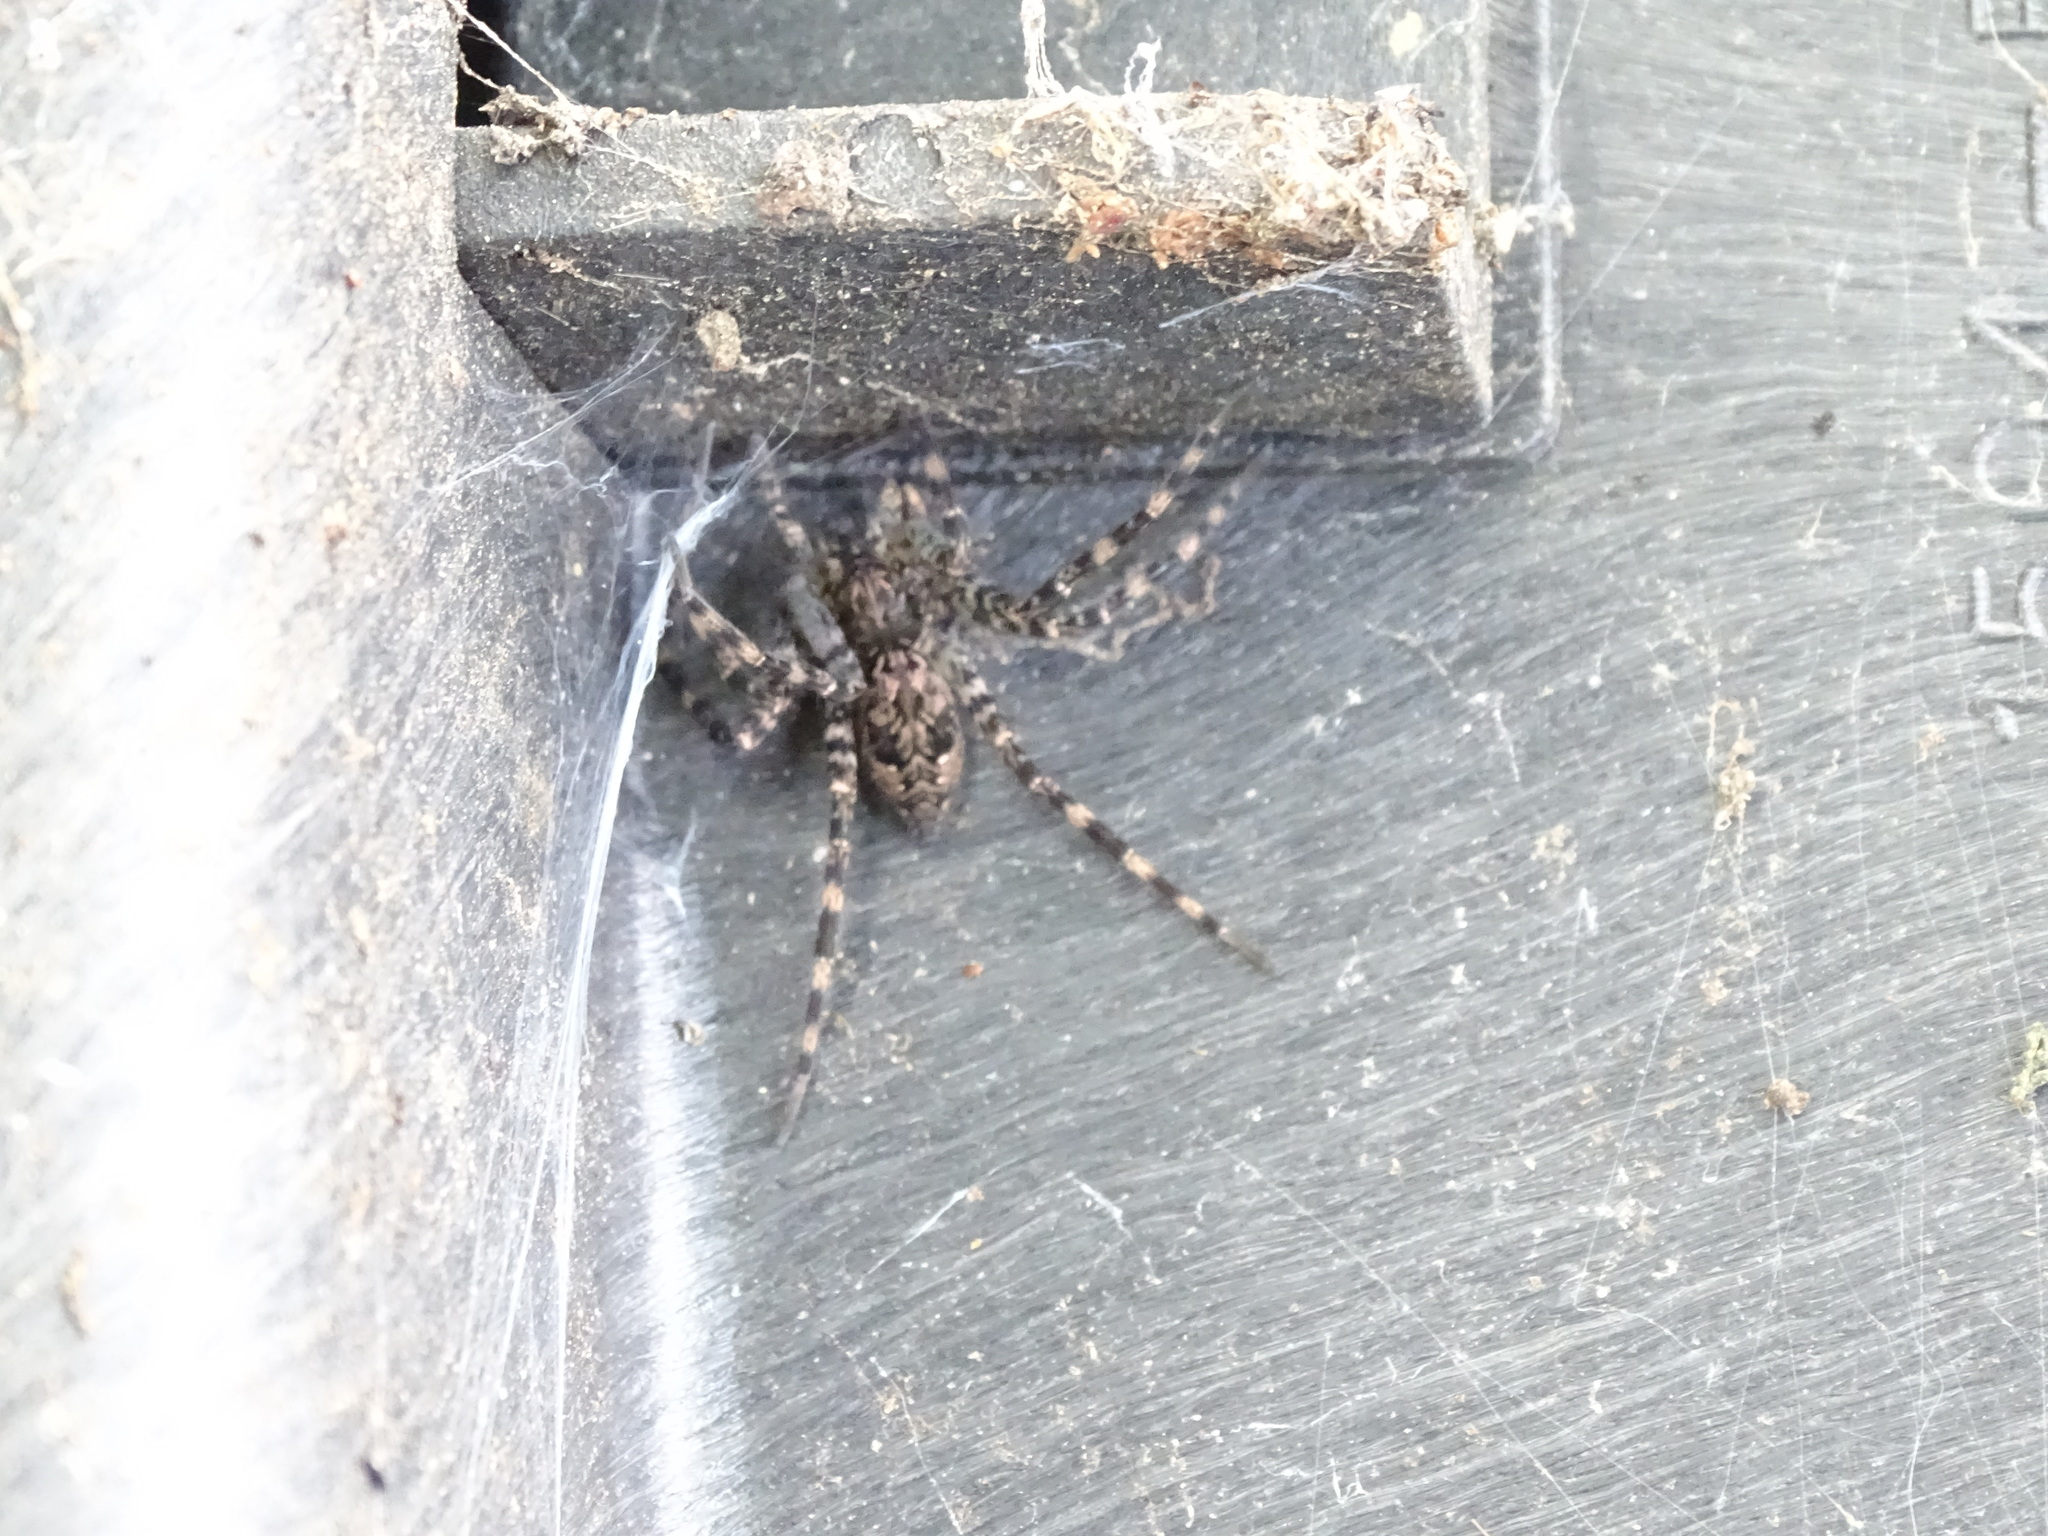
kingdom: Animalia
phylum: Arthropoda
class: Arachnida
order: Araneae
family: Pisauridae
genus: Dolomedes
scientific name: Dolomedes tenebrosus
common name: Dark fishing spider
